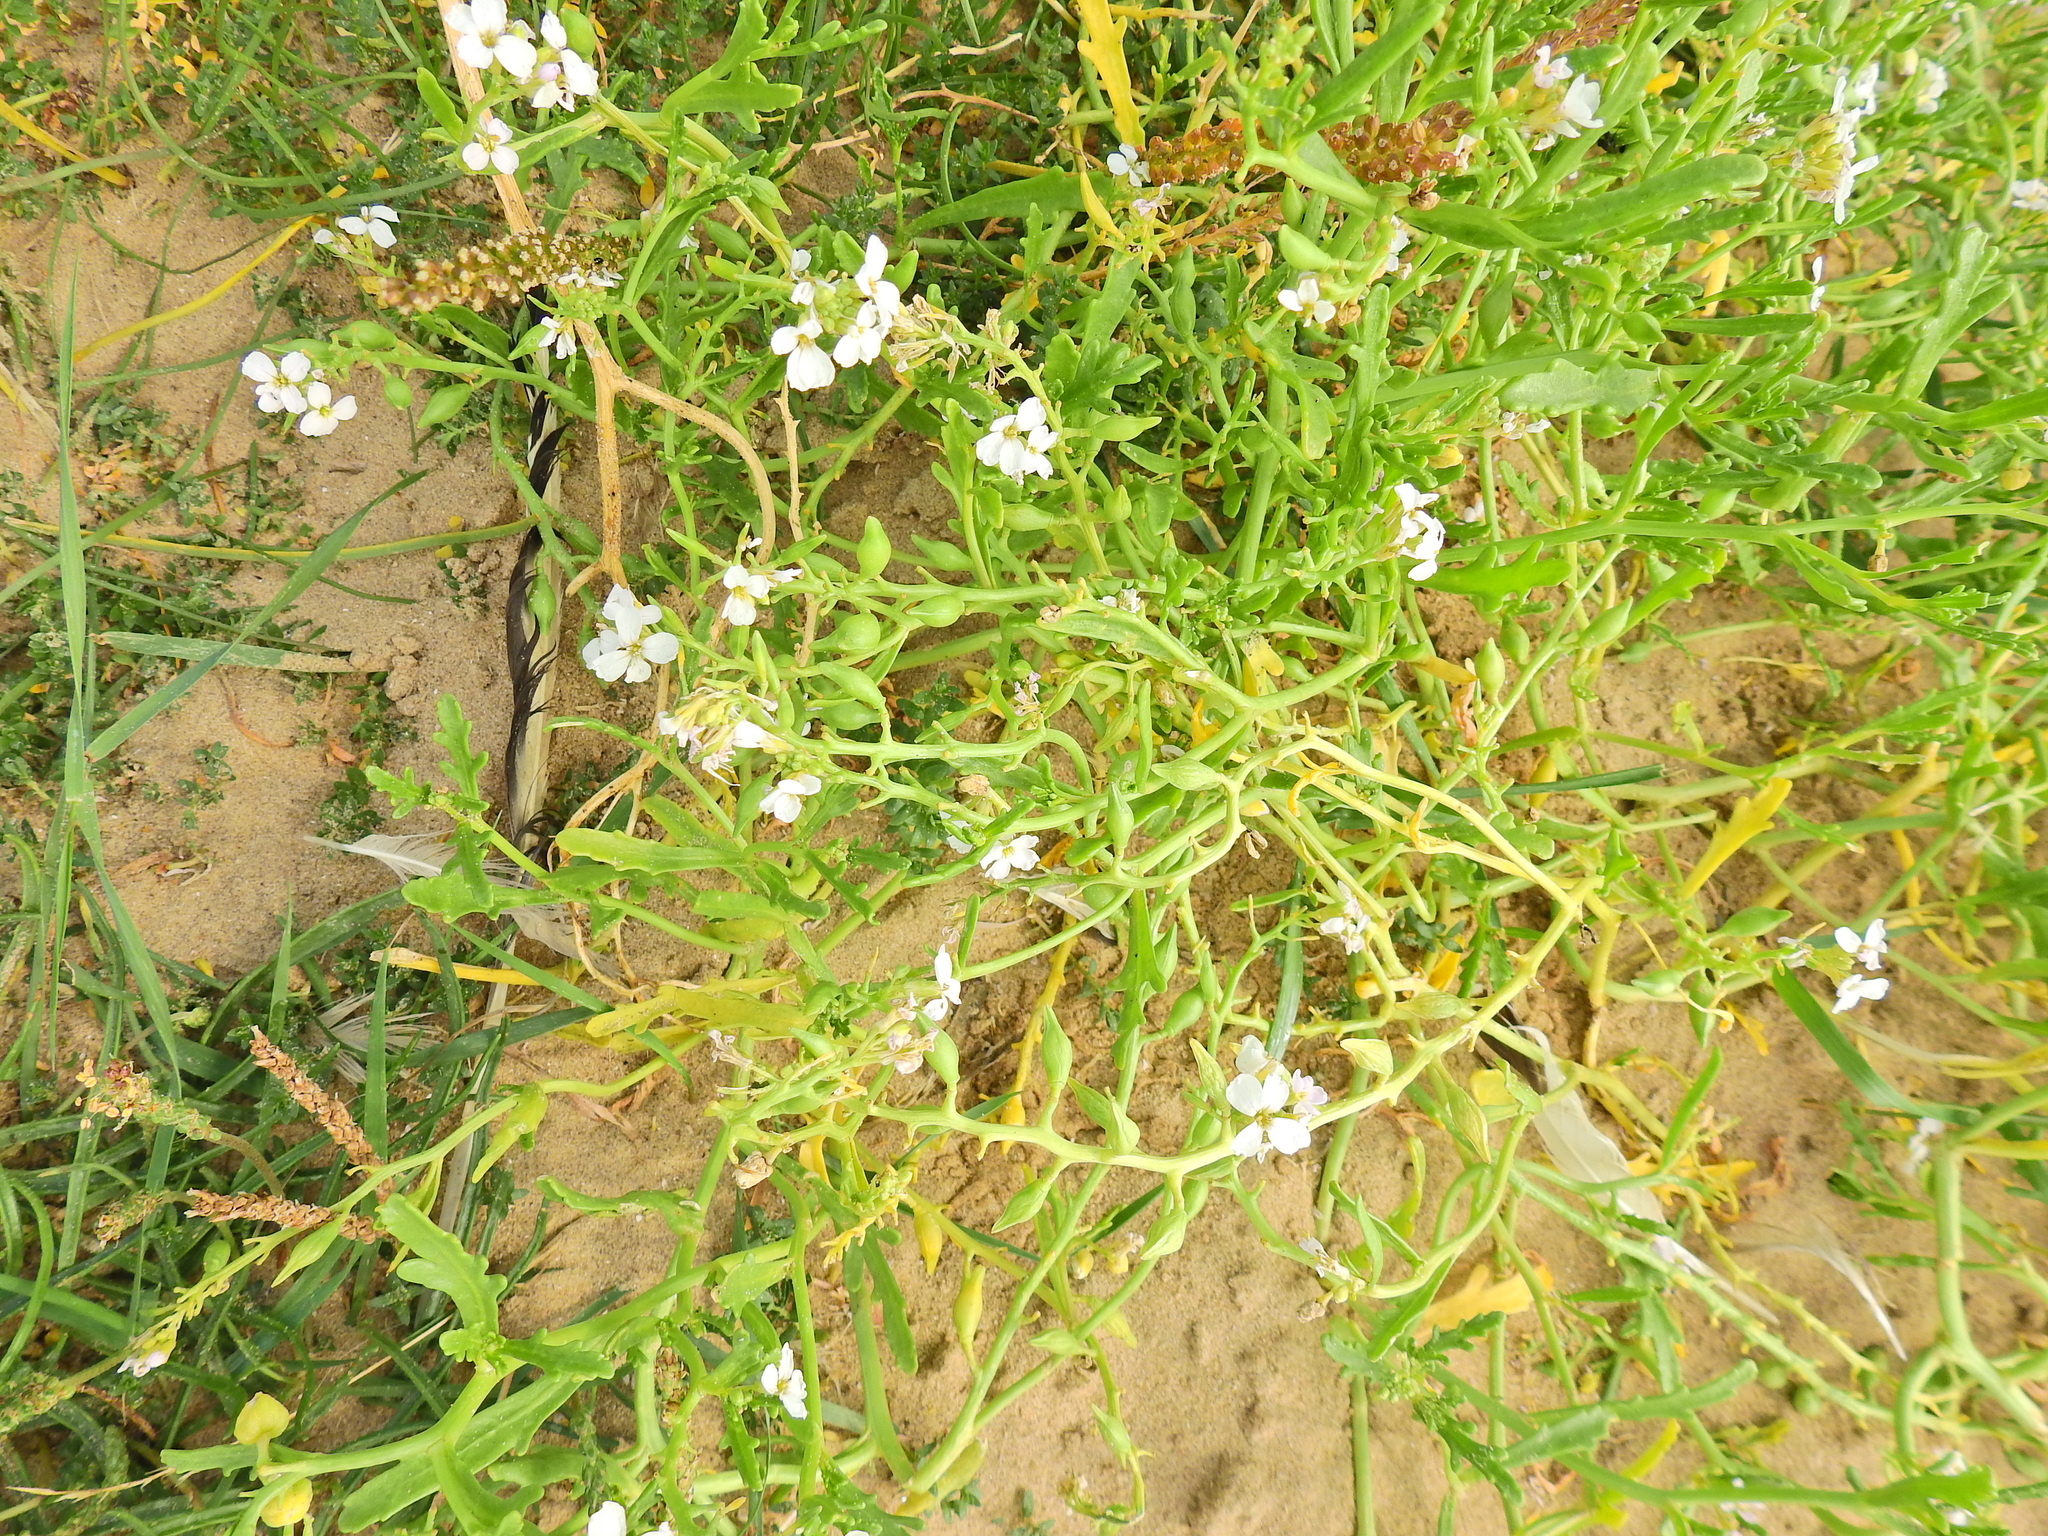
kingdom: Plantae
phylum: Tracheophyta
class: Magnoliopsida
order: Brassicales
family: Brassicaceae
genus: Cakile
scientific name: Cakile maritima
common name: Sea rocket
